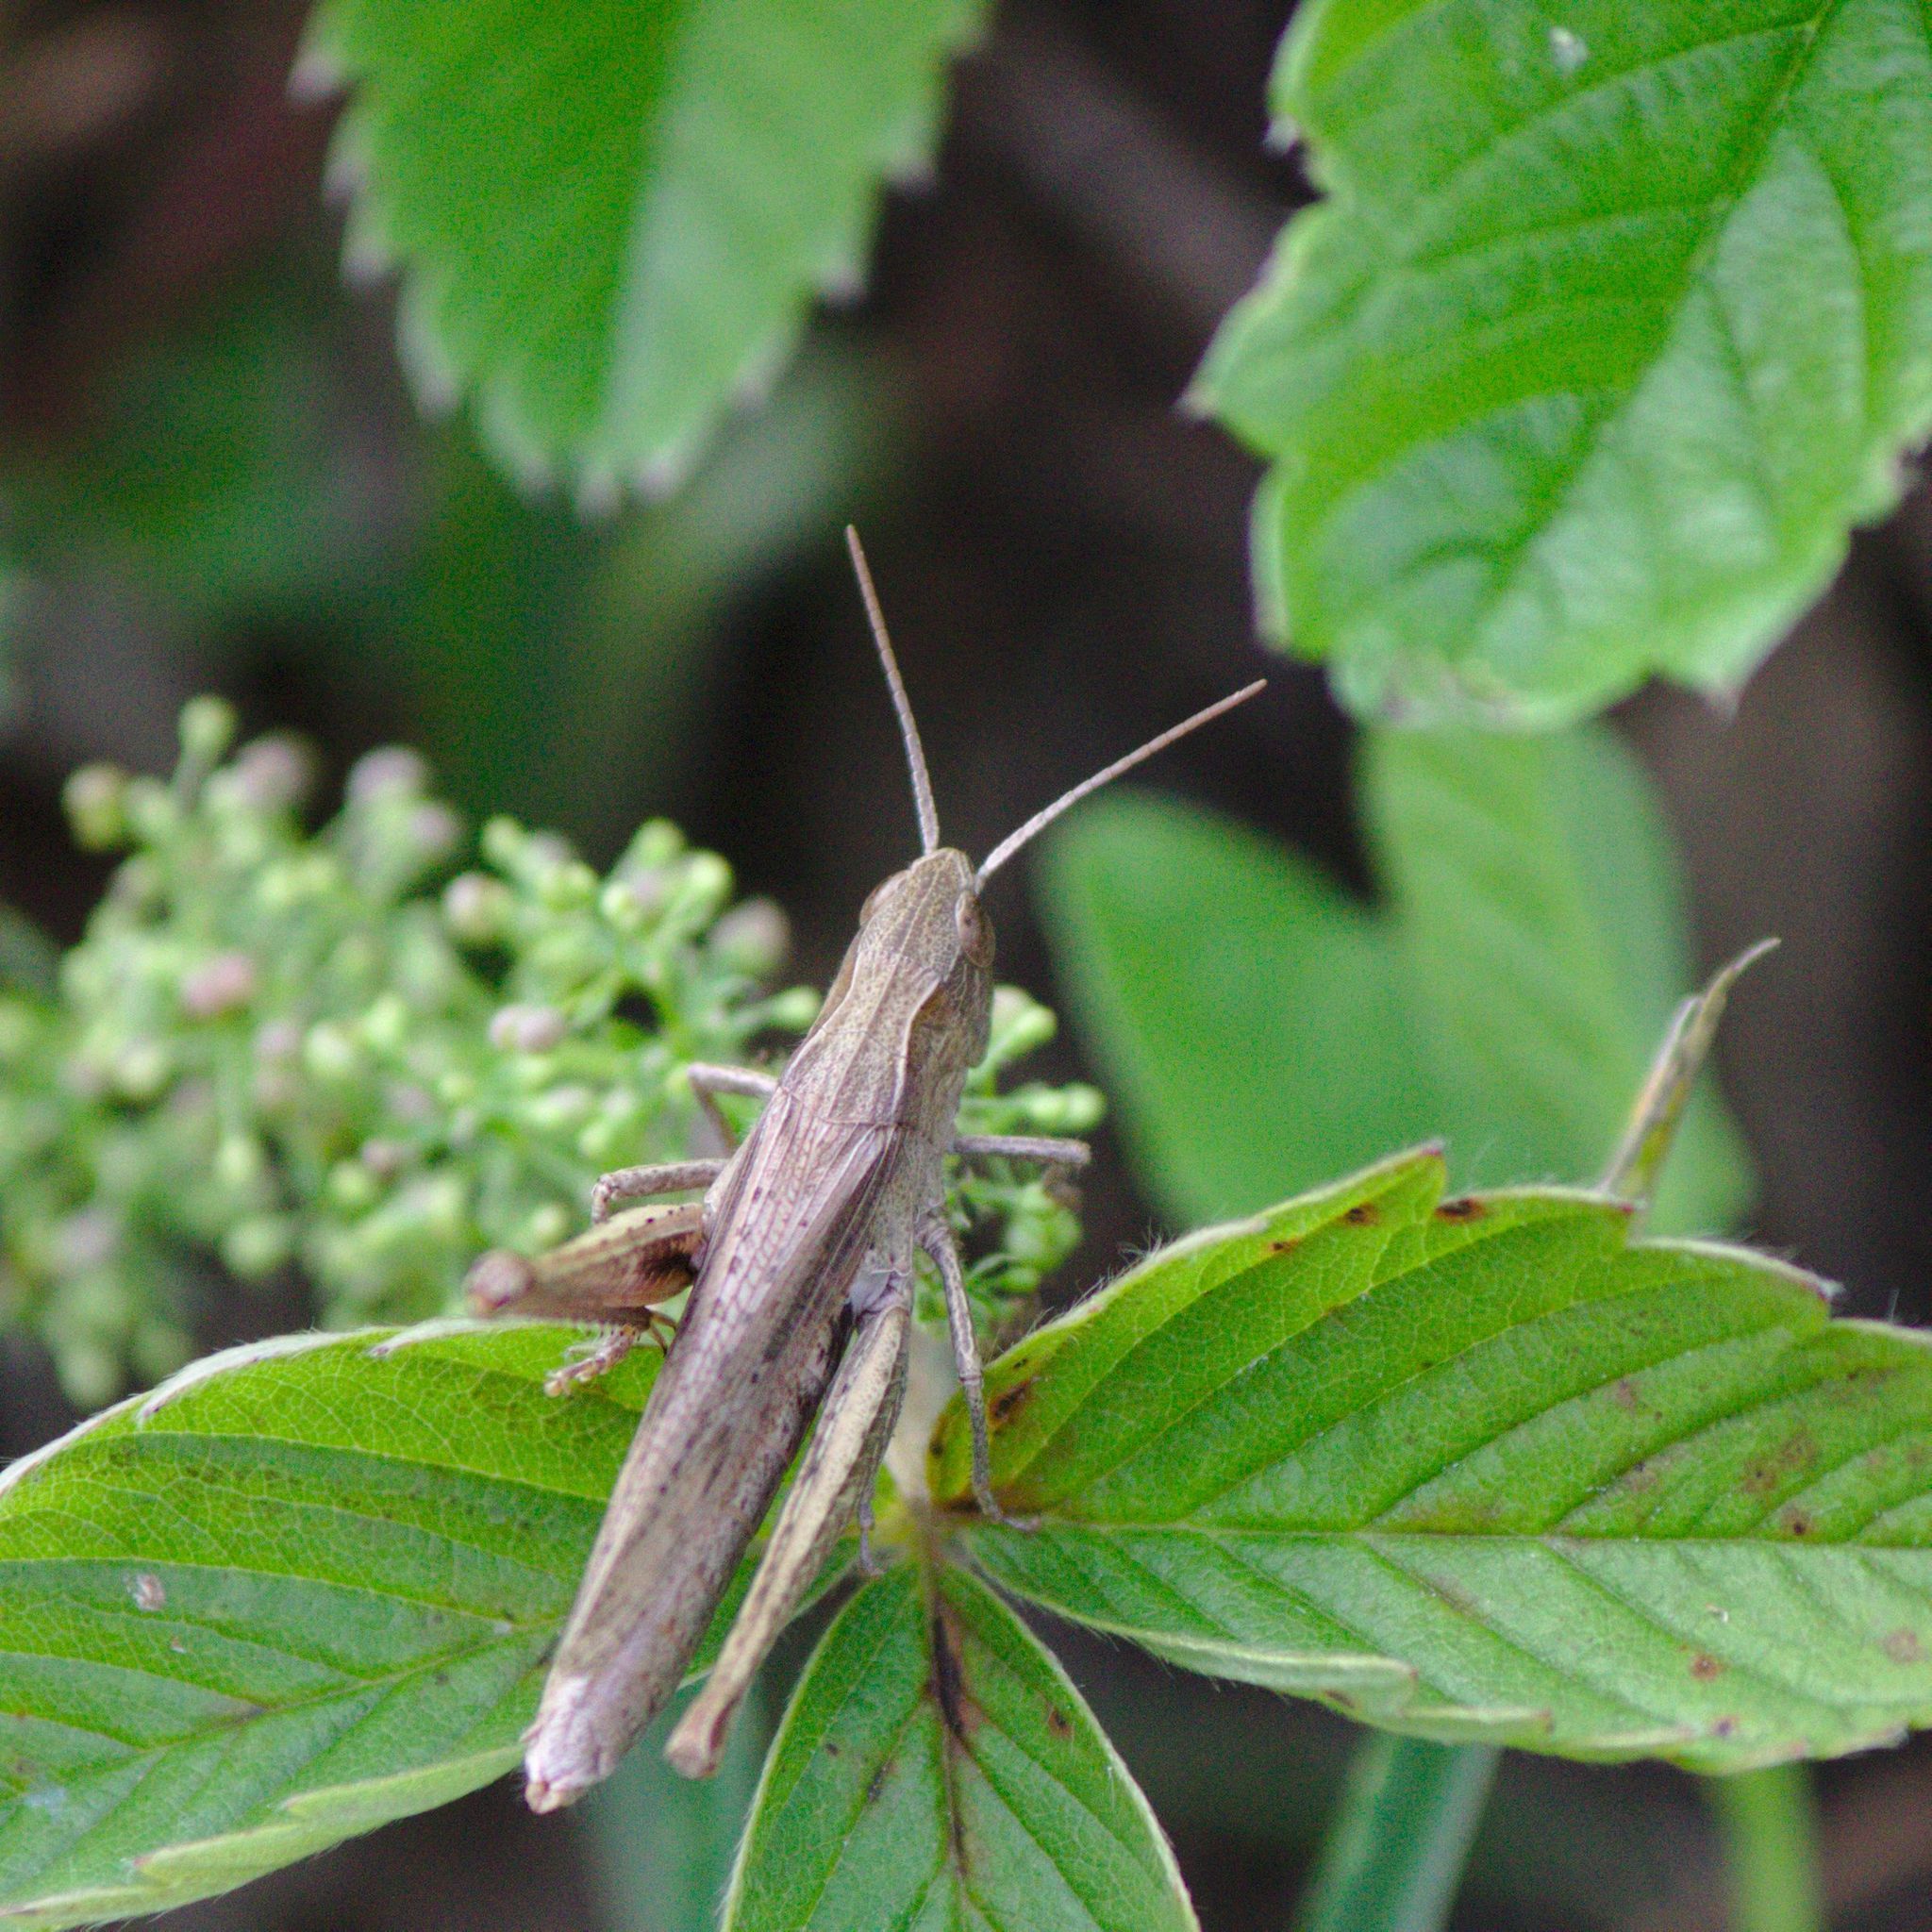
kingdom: Animalia
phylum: Arthropoda
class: Insecta
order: Orthoptera
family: Acrididae
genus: Chorthippus
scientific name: Chorthippus dorsatus
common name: Steppe grasshopper
